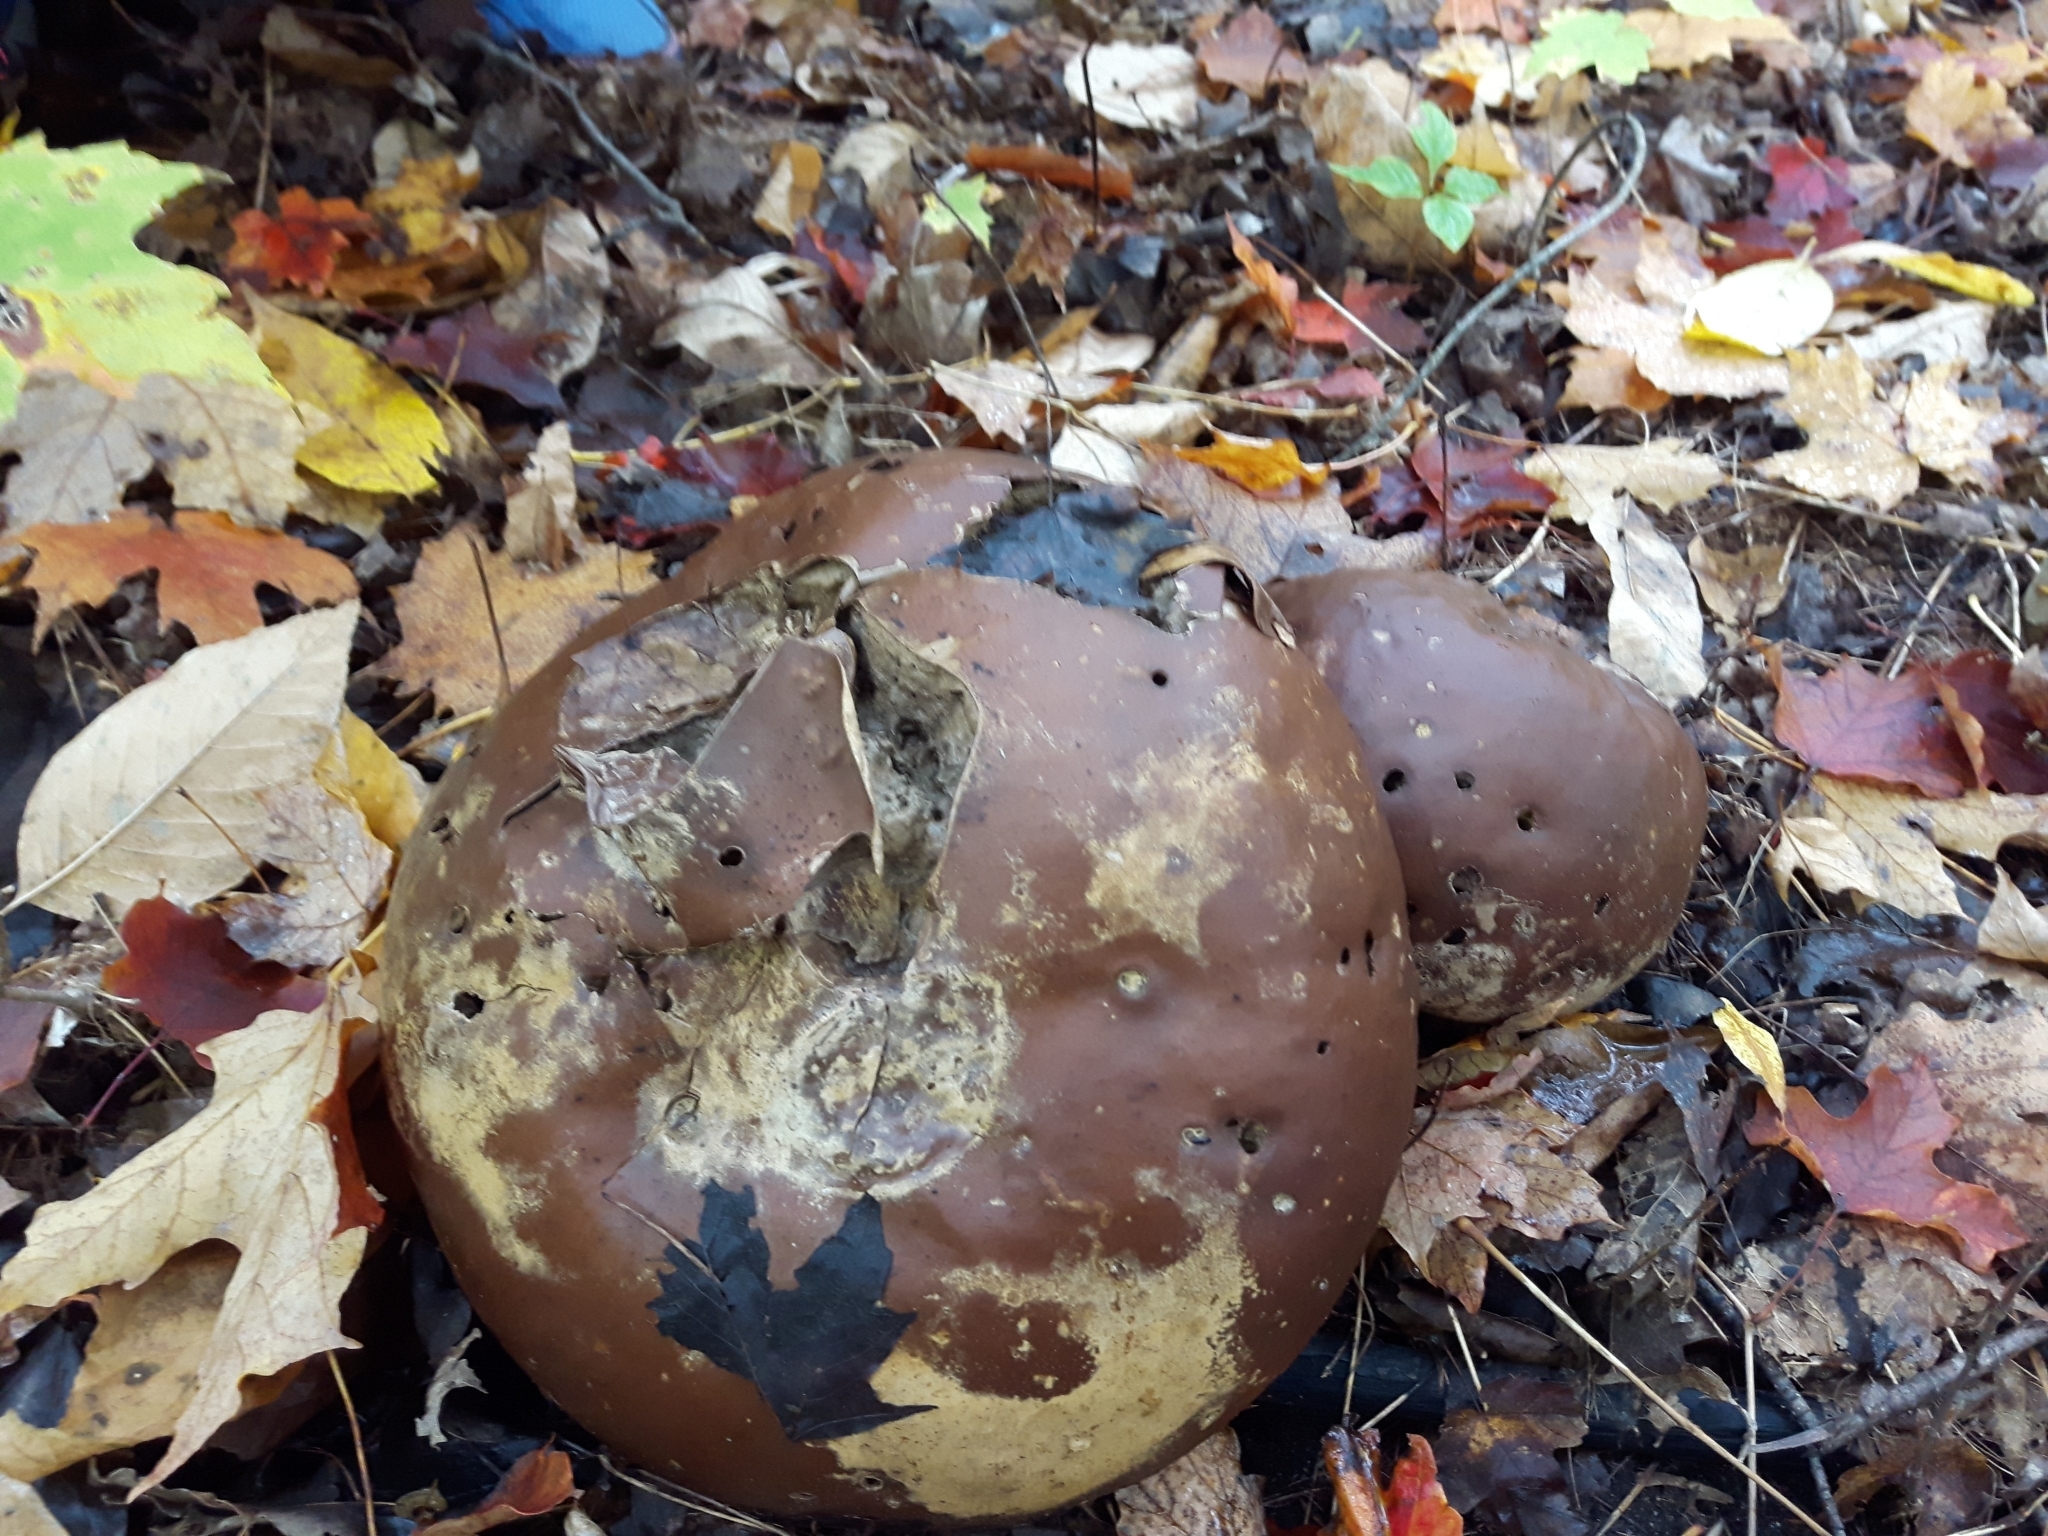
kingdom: Fungi
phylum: Basidiomycota
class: Agaricomycetes
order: Agaricales
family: Lycoperdaceae
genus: Calvatia
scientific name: Calvatia gigantea
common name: Giant puffball
